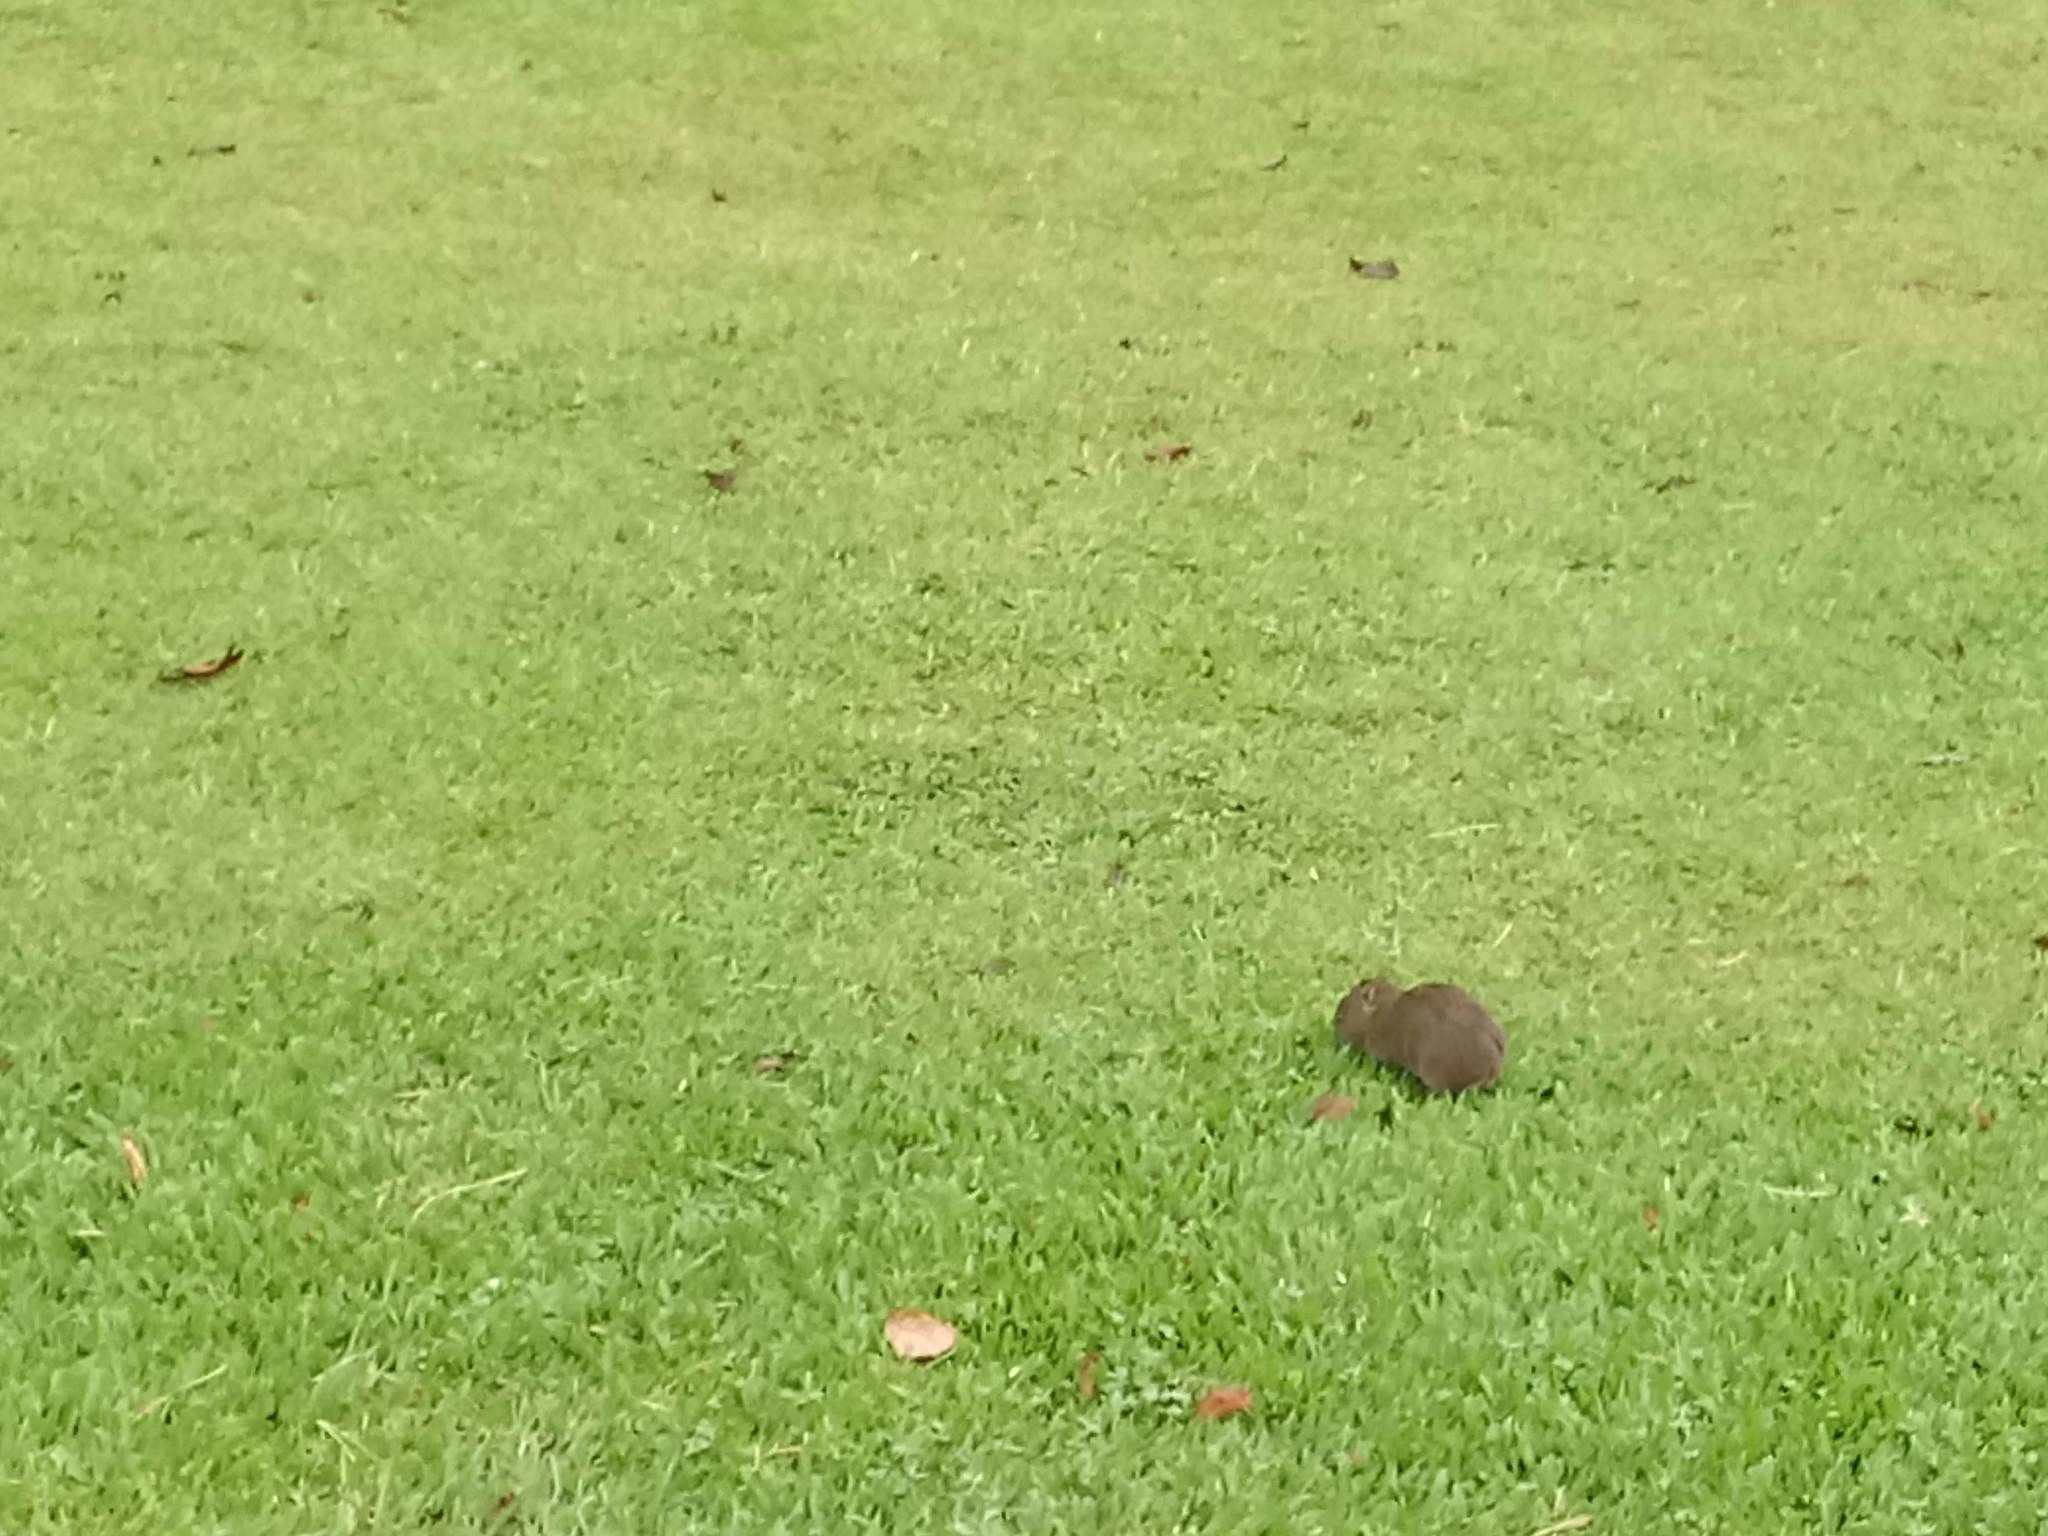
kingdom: Animalia
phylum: Chordata
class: Mammalia
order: Rodentia
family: Caviidae
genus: Cavia
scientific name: Cavia aperea
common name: Brazilian guinea pig
